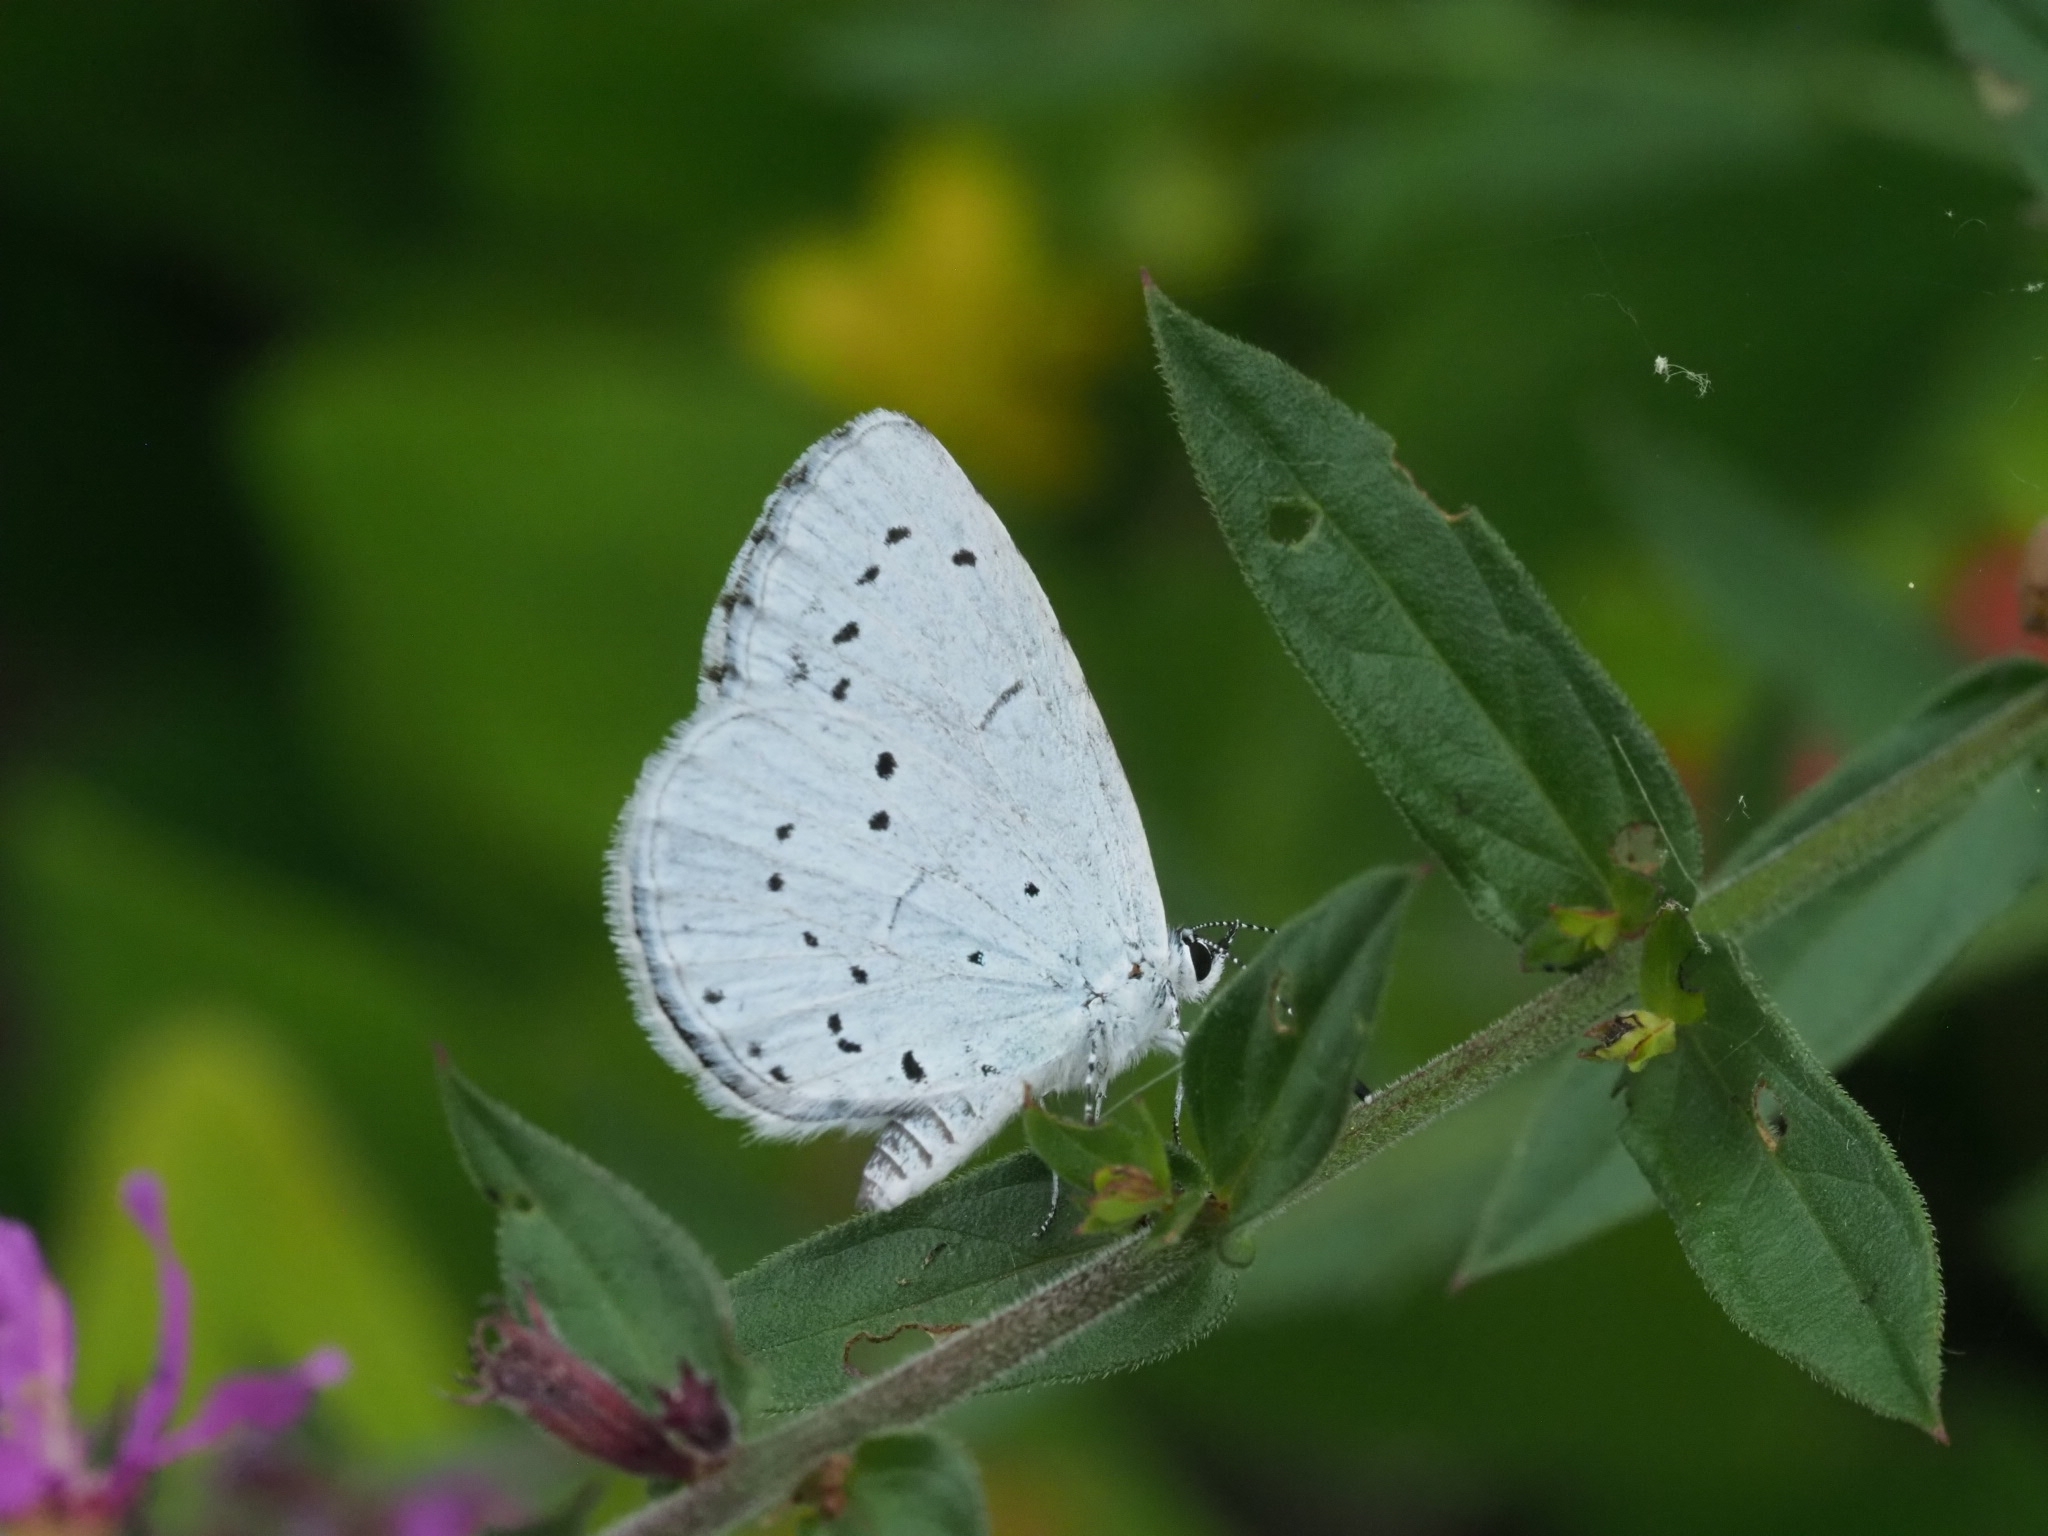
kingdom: Animalia
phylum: Arthropoda
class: Insecta
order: Lepidoptera
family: Lycaenidae
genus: Celastrina
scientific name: Celastrina argiolus
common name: Holly blue
